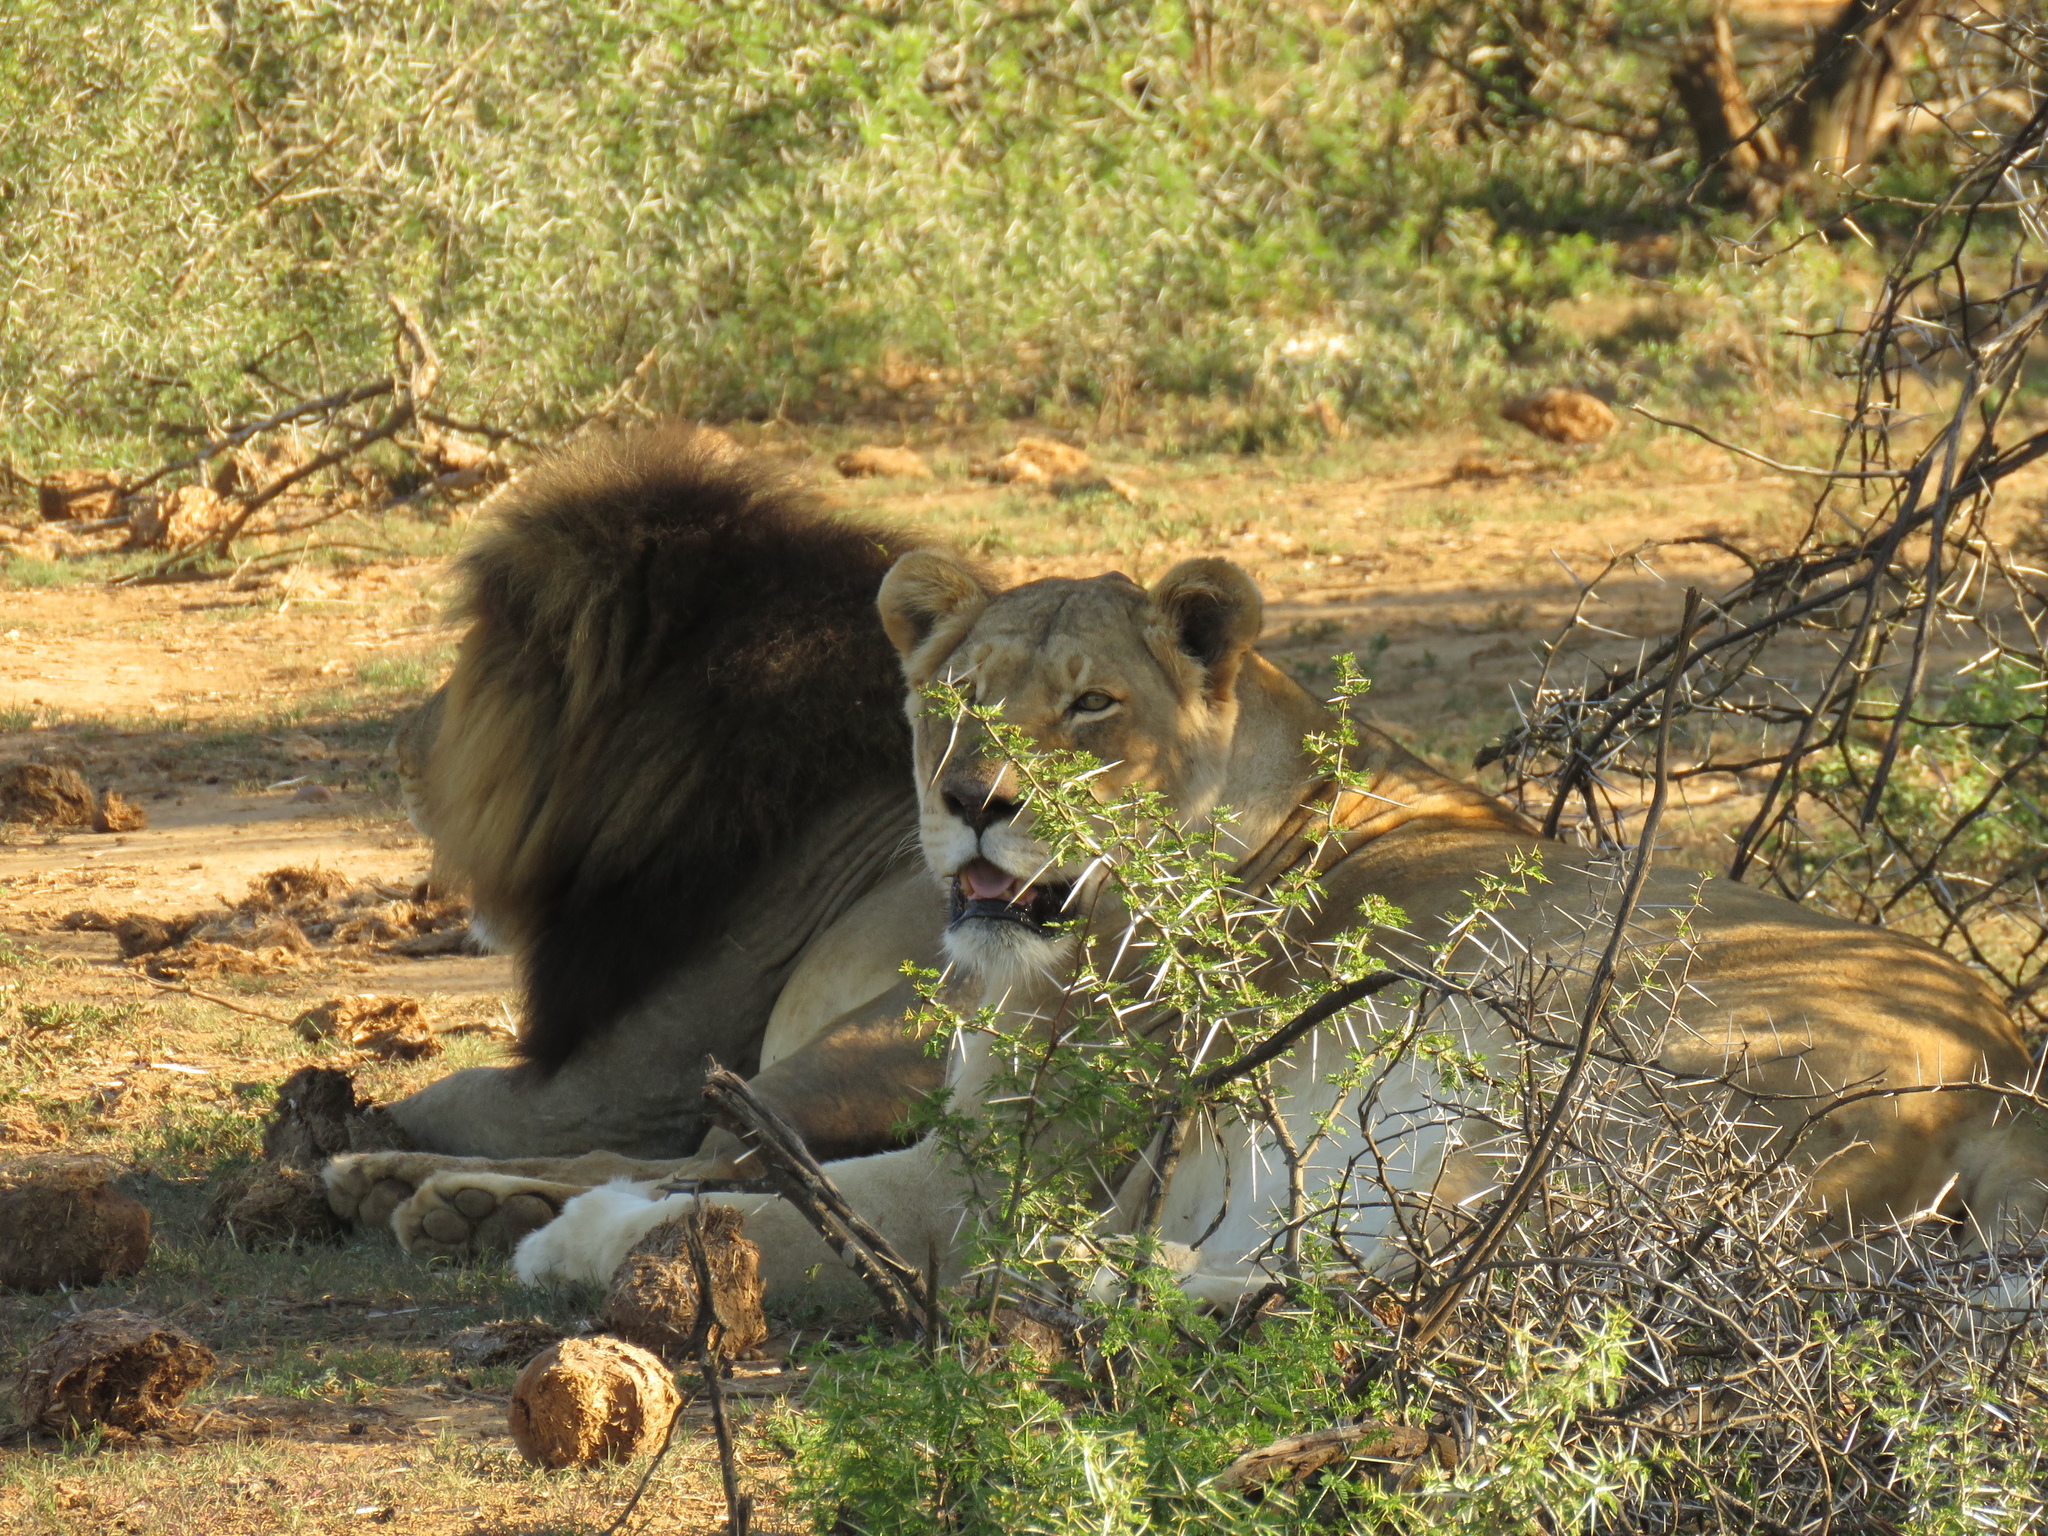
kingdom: Animalia
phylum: Chordata
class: Mammalia
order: Carnivora
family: Felidae
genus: Panthera
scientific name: Panthera leo
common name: Lion
